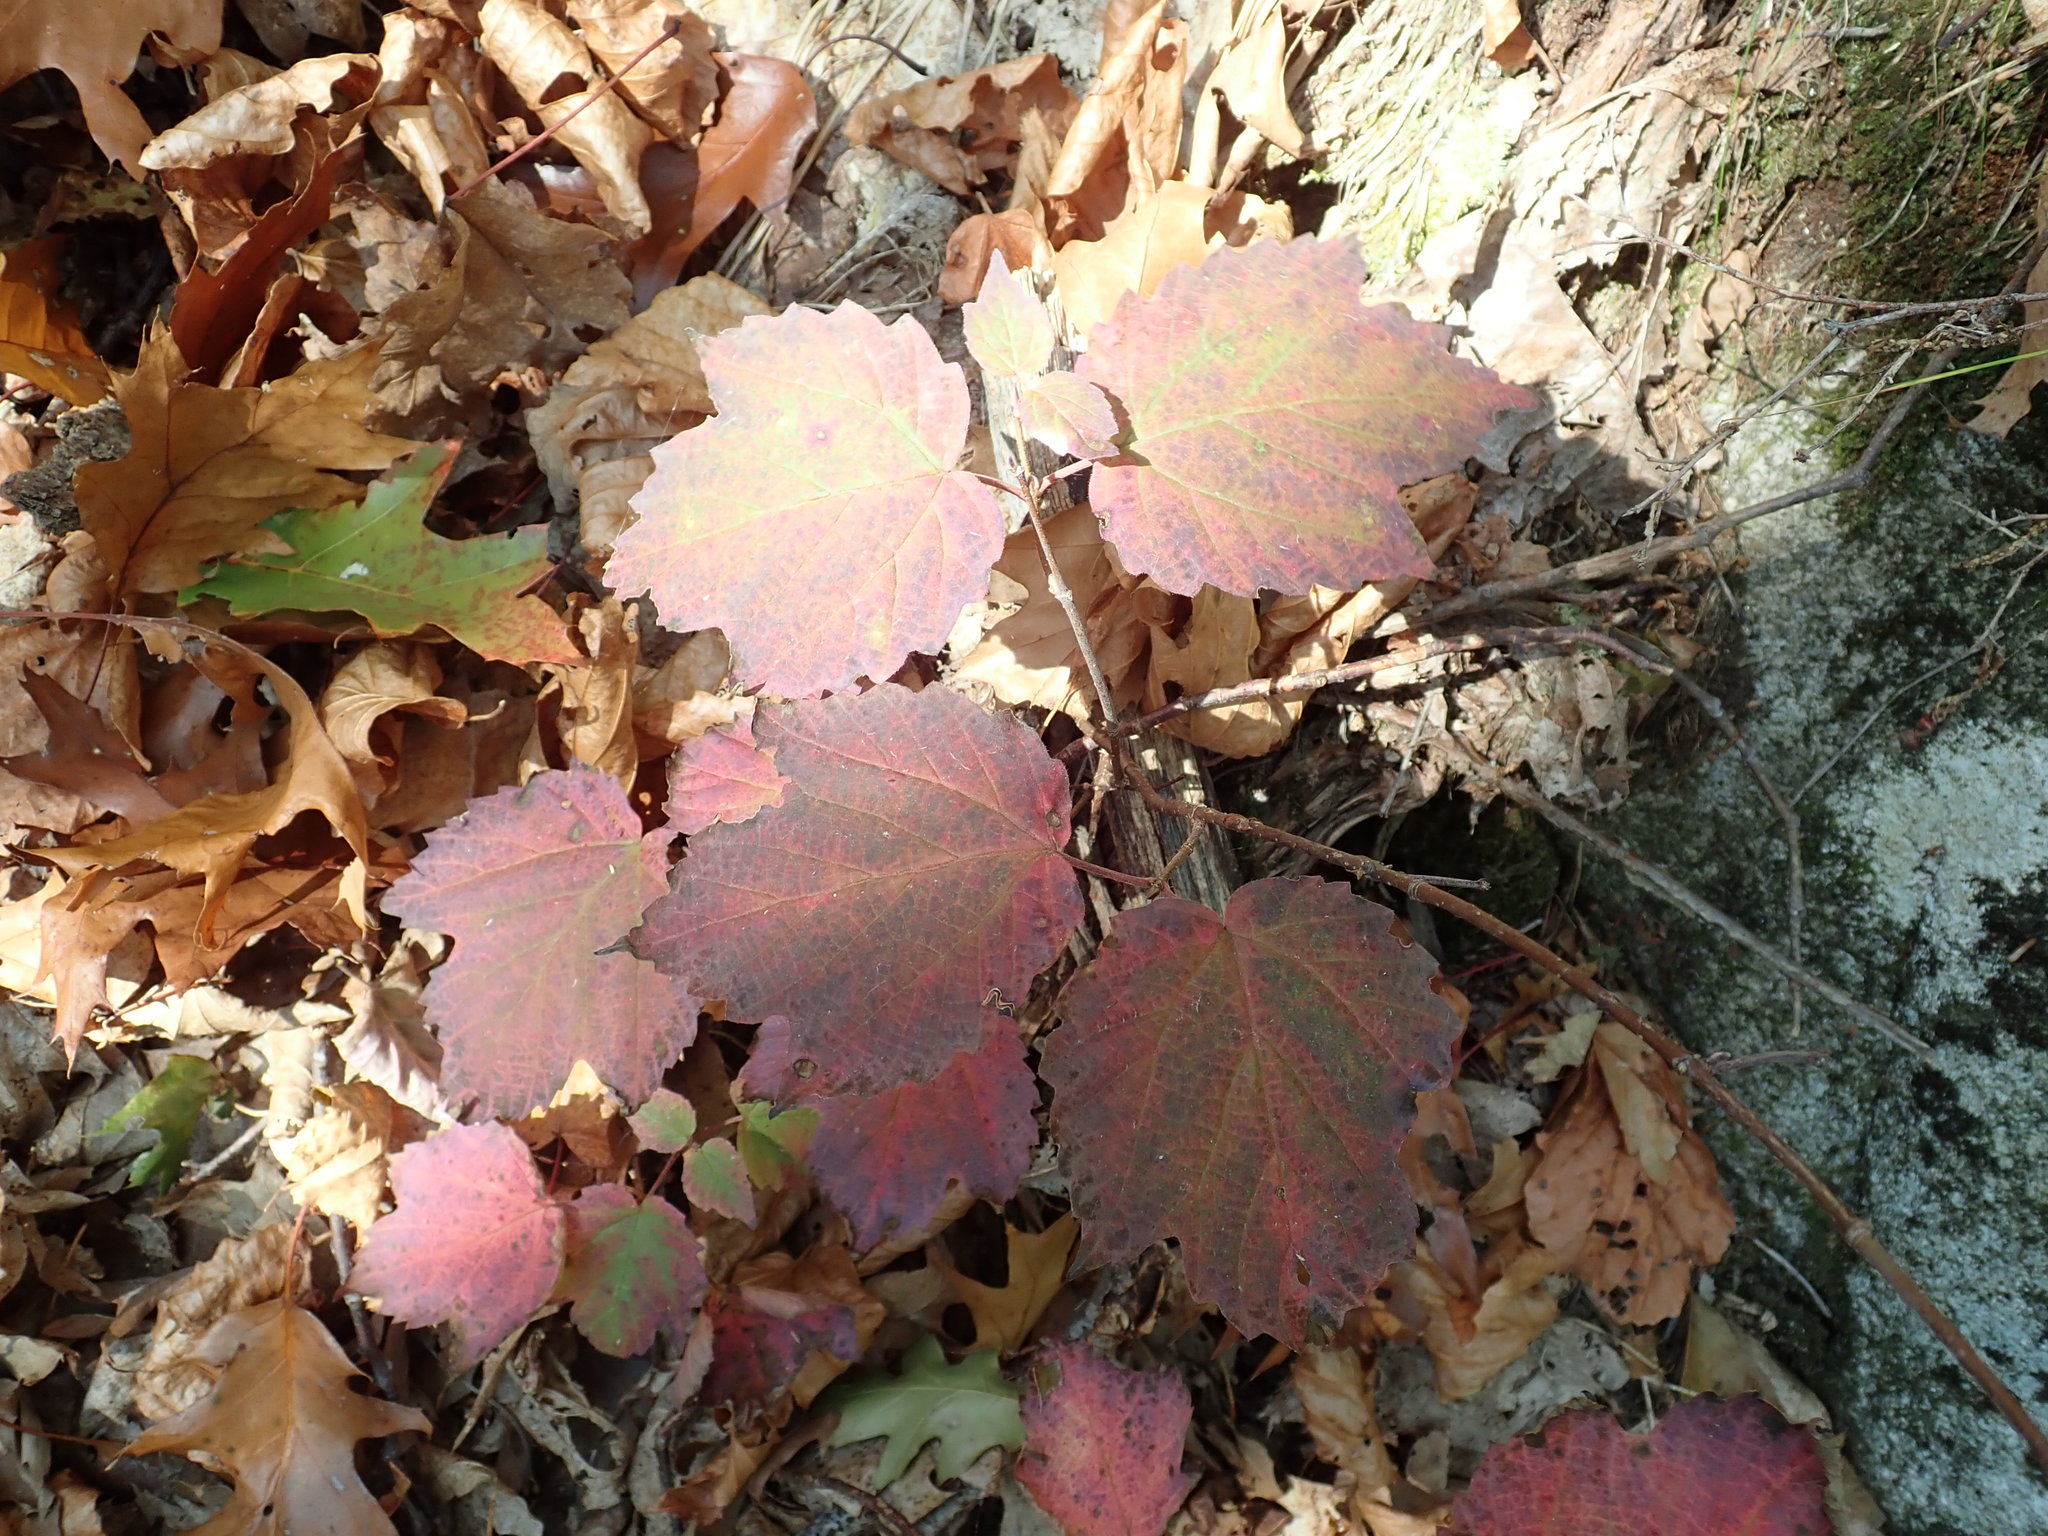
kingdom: Plantae
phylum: Tracheophyta
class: Magnoliopsida
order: Dipsacales
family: Viburnaceae
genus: Viburnum
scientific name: Viburnum acerifolium
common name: Dockmackie
